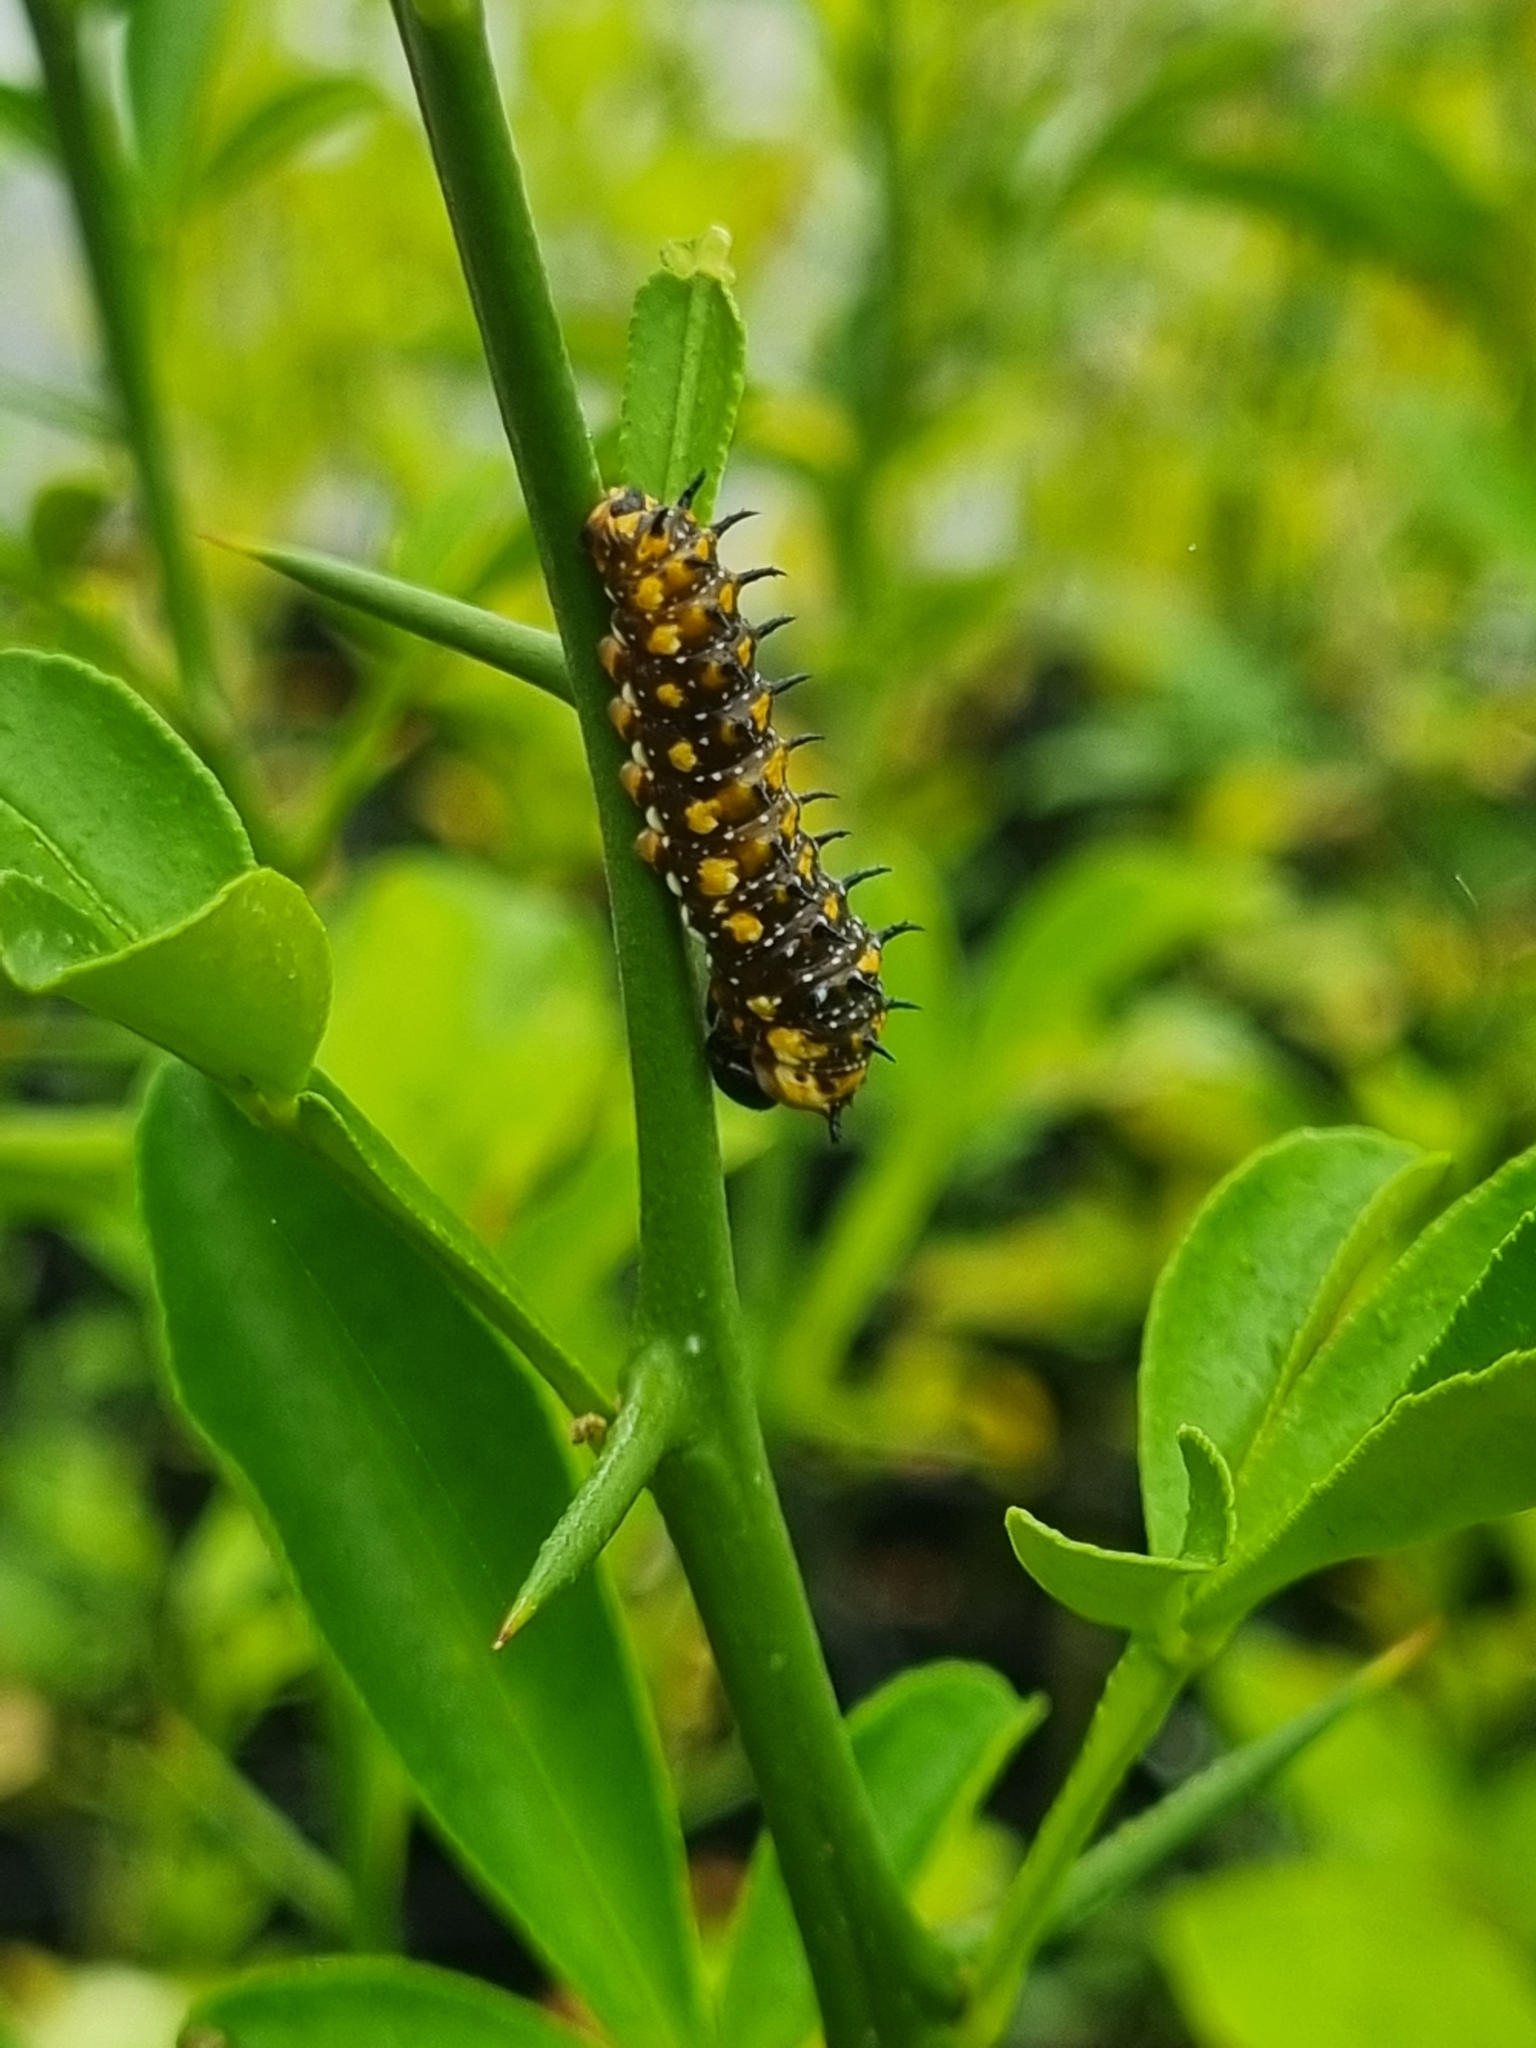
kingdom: Animalia
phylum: Arthropoda
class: Insecta
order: Lepidoptera
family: Papilionidae
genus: Papilio
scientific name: Papilio anactus
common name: Dingy swallowtail
